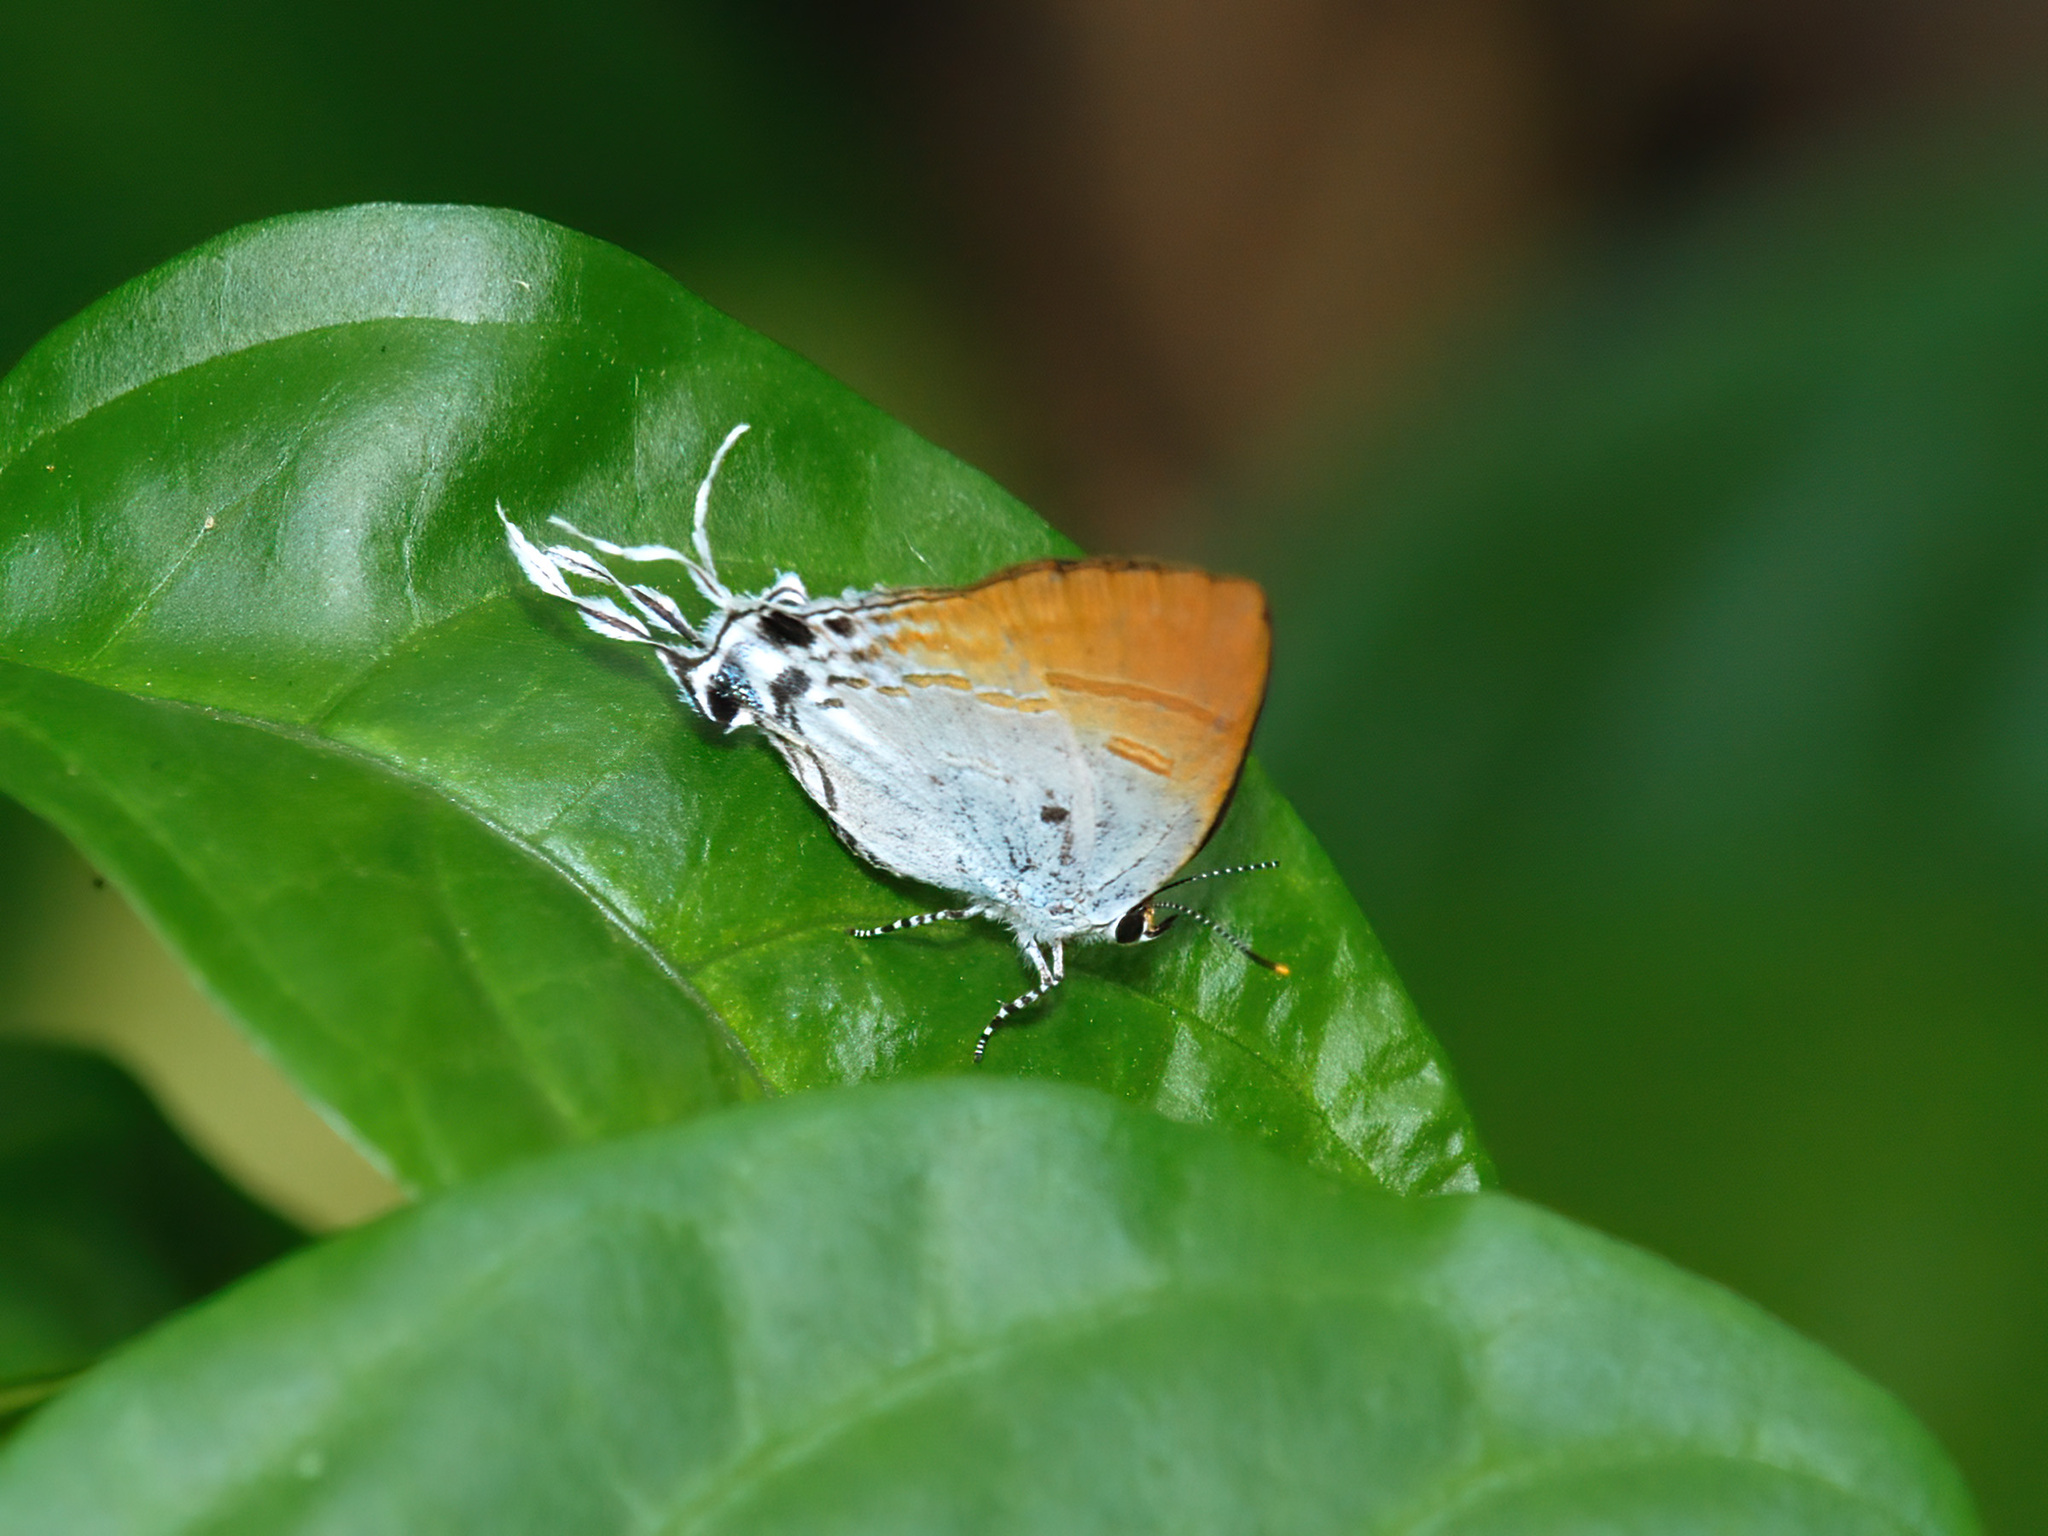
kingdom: Animalia
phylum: Arthropoda
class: Insecta
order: Lepidoptera
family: Lycaenidae
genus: Zeltus
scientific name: Zeltus amasa
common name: Fluffy tit
